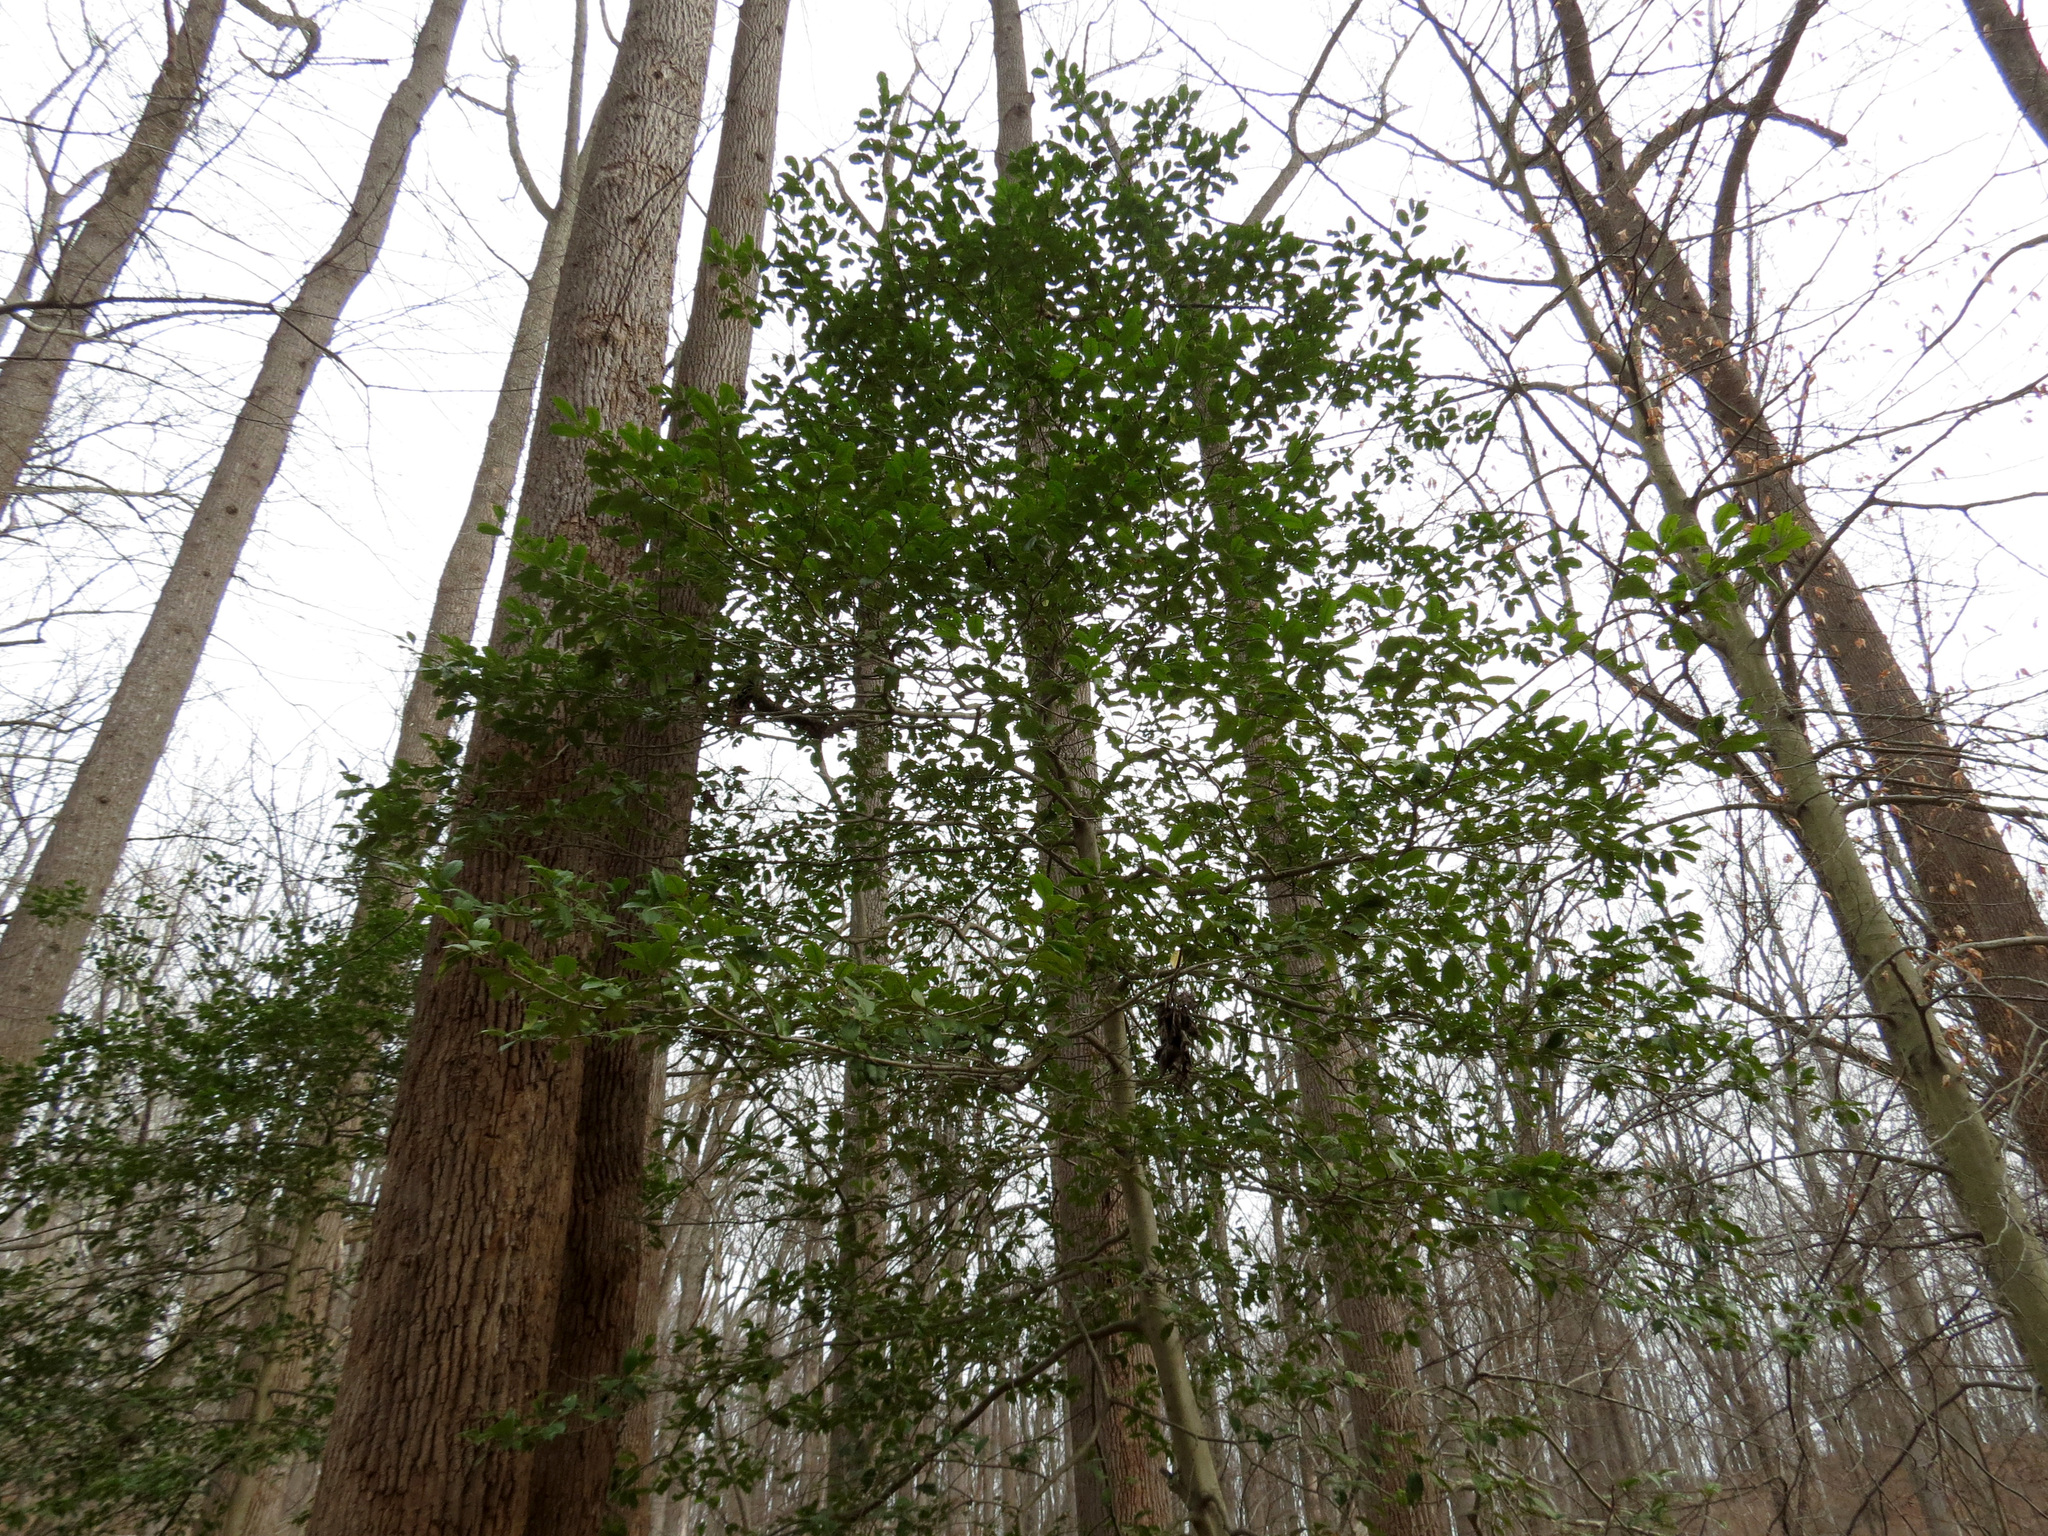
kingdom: Plantae
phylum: Tracheophyta
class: Magnoliopsida
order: Aquifoliales
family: Aquifoliaceae
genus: Ilex
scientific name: Ilex opaca
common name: American holly
